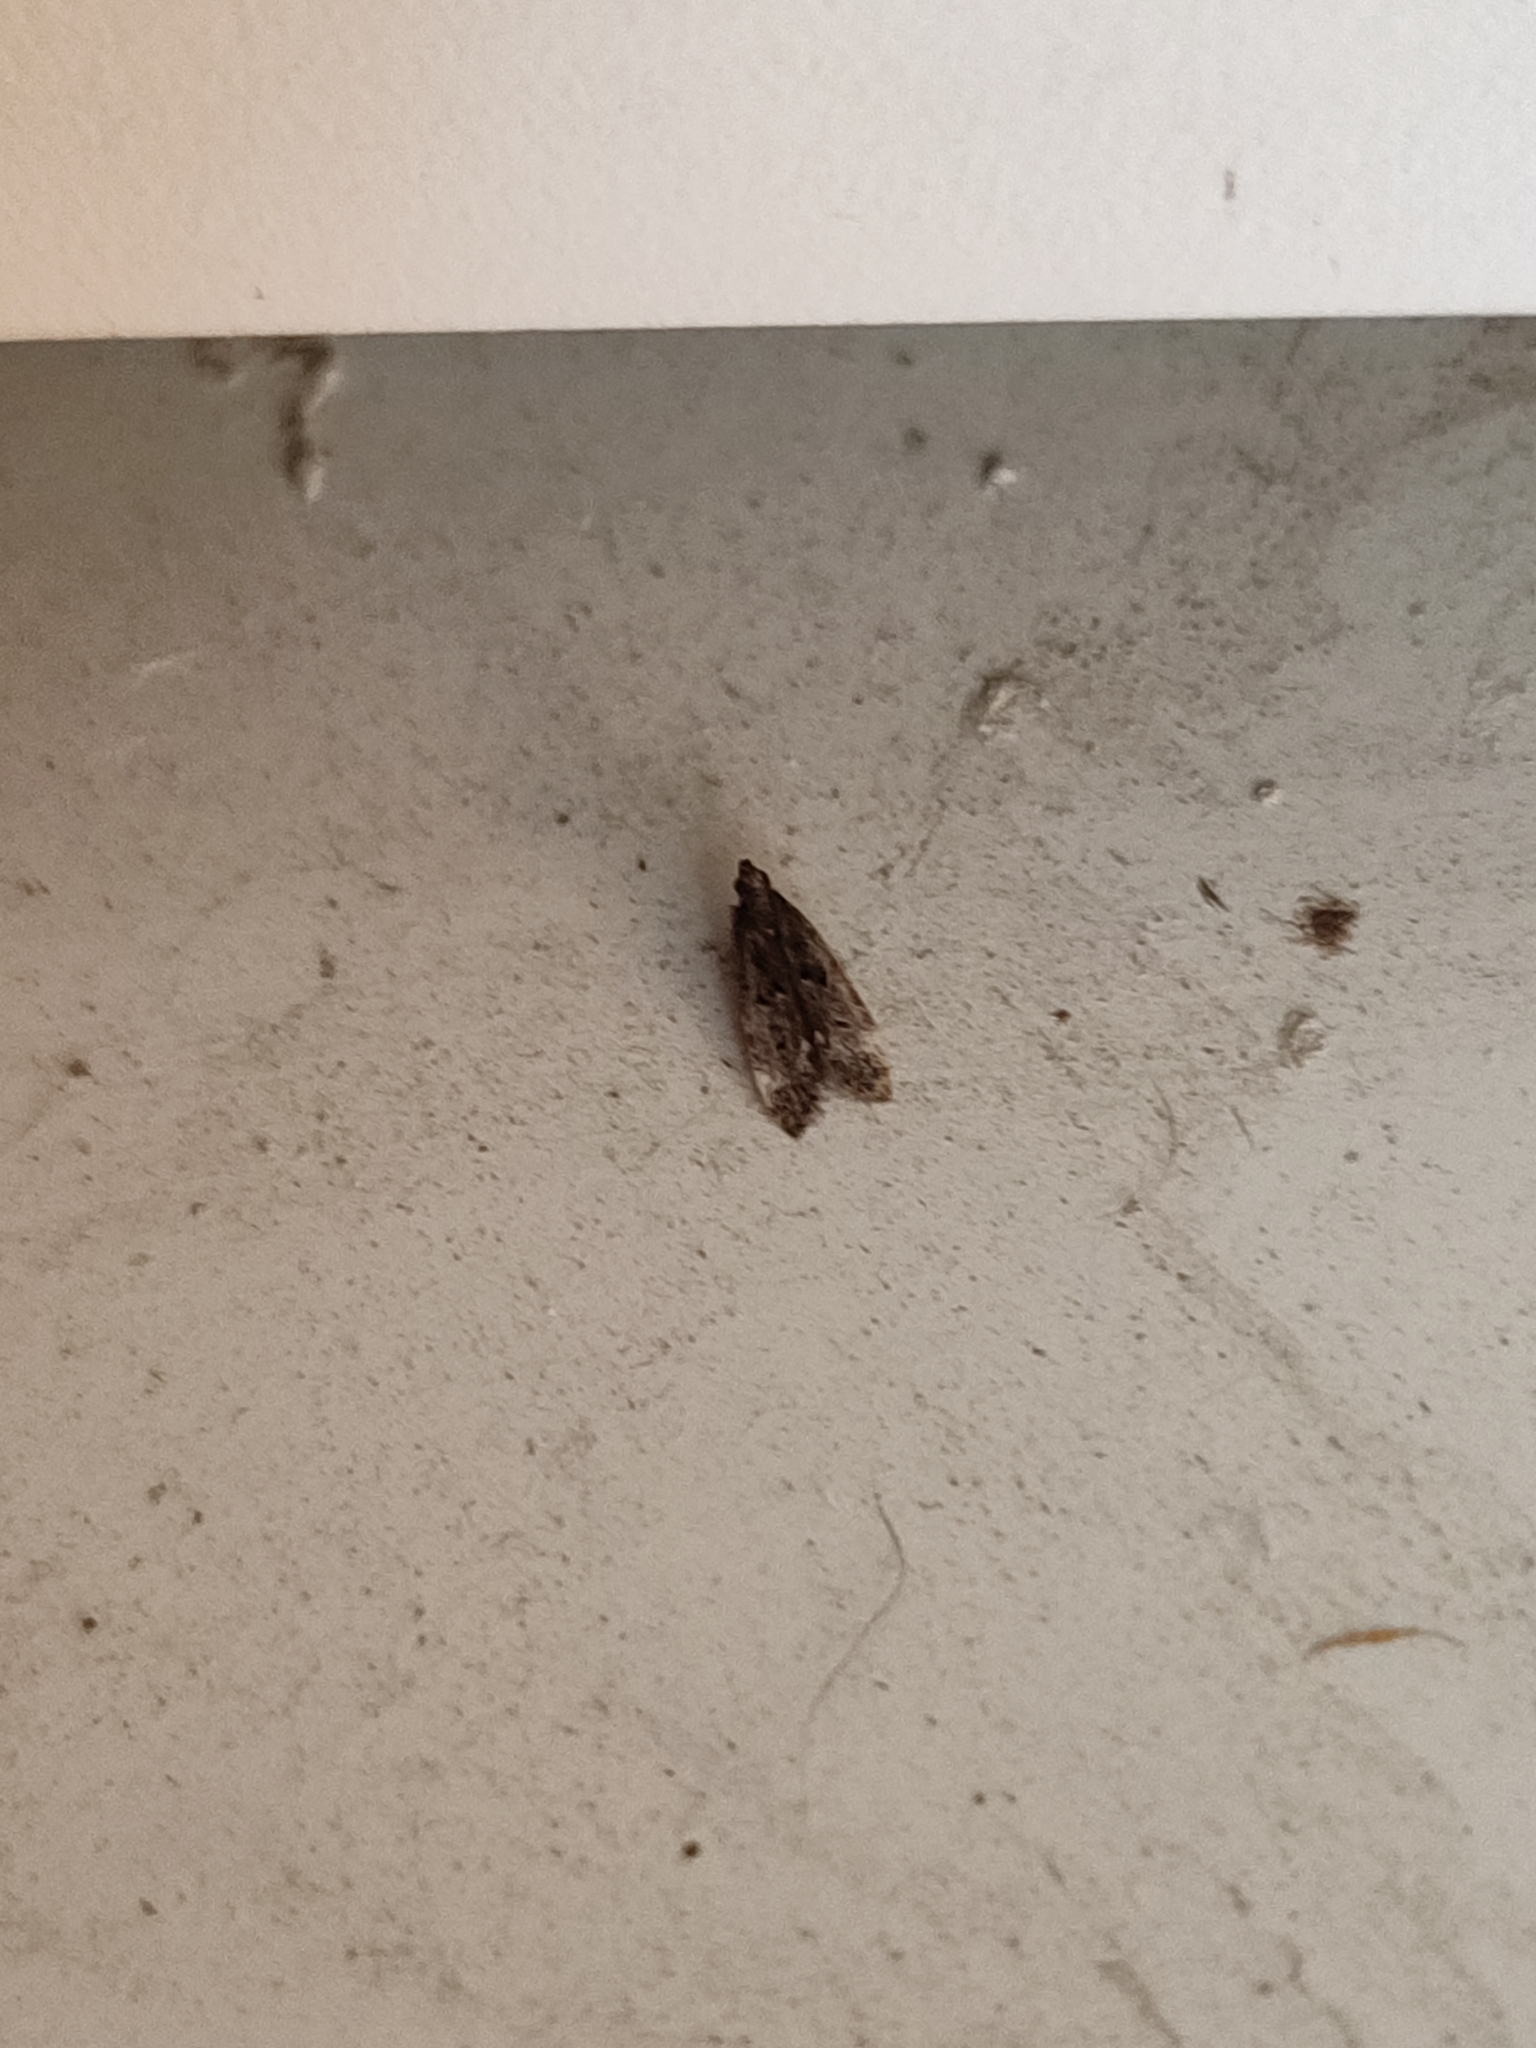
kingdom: Animalia
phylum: Arthropoda
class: Insecta
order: Lepidoptera
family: Gelechiidae
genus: Acanthophila
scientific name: Acanthophila alacella
